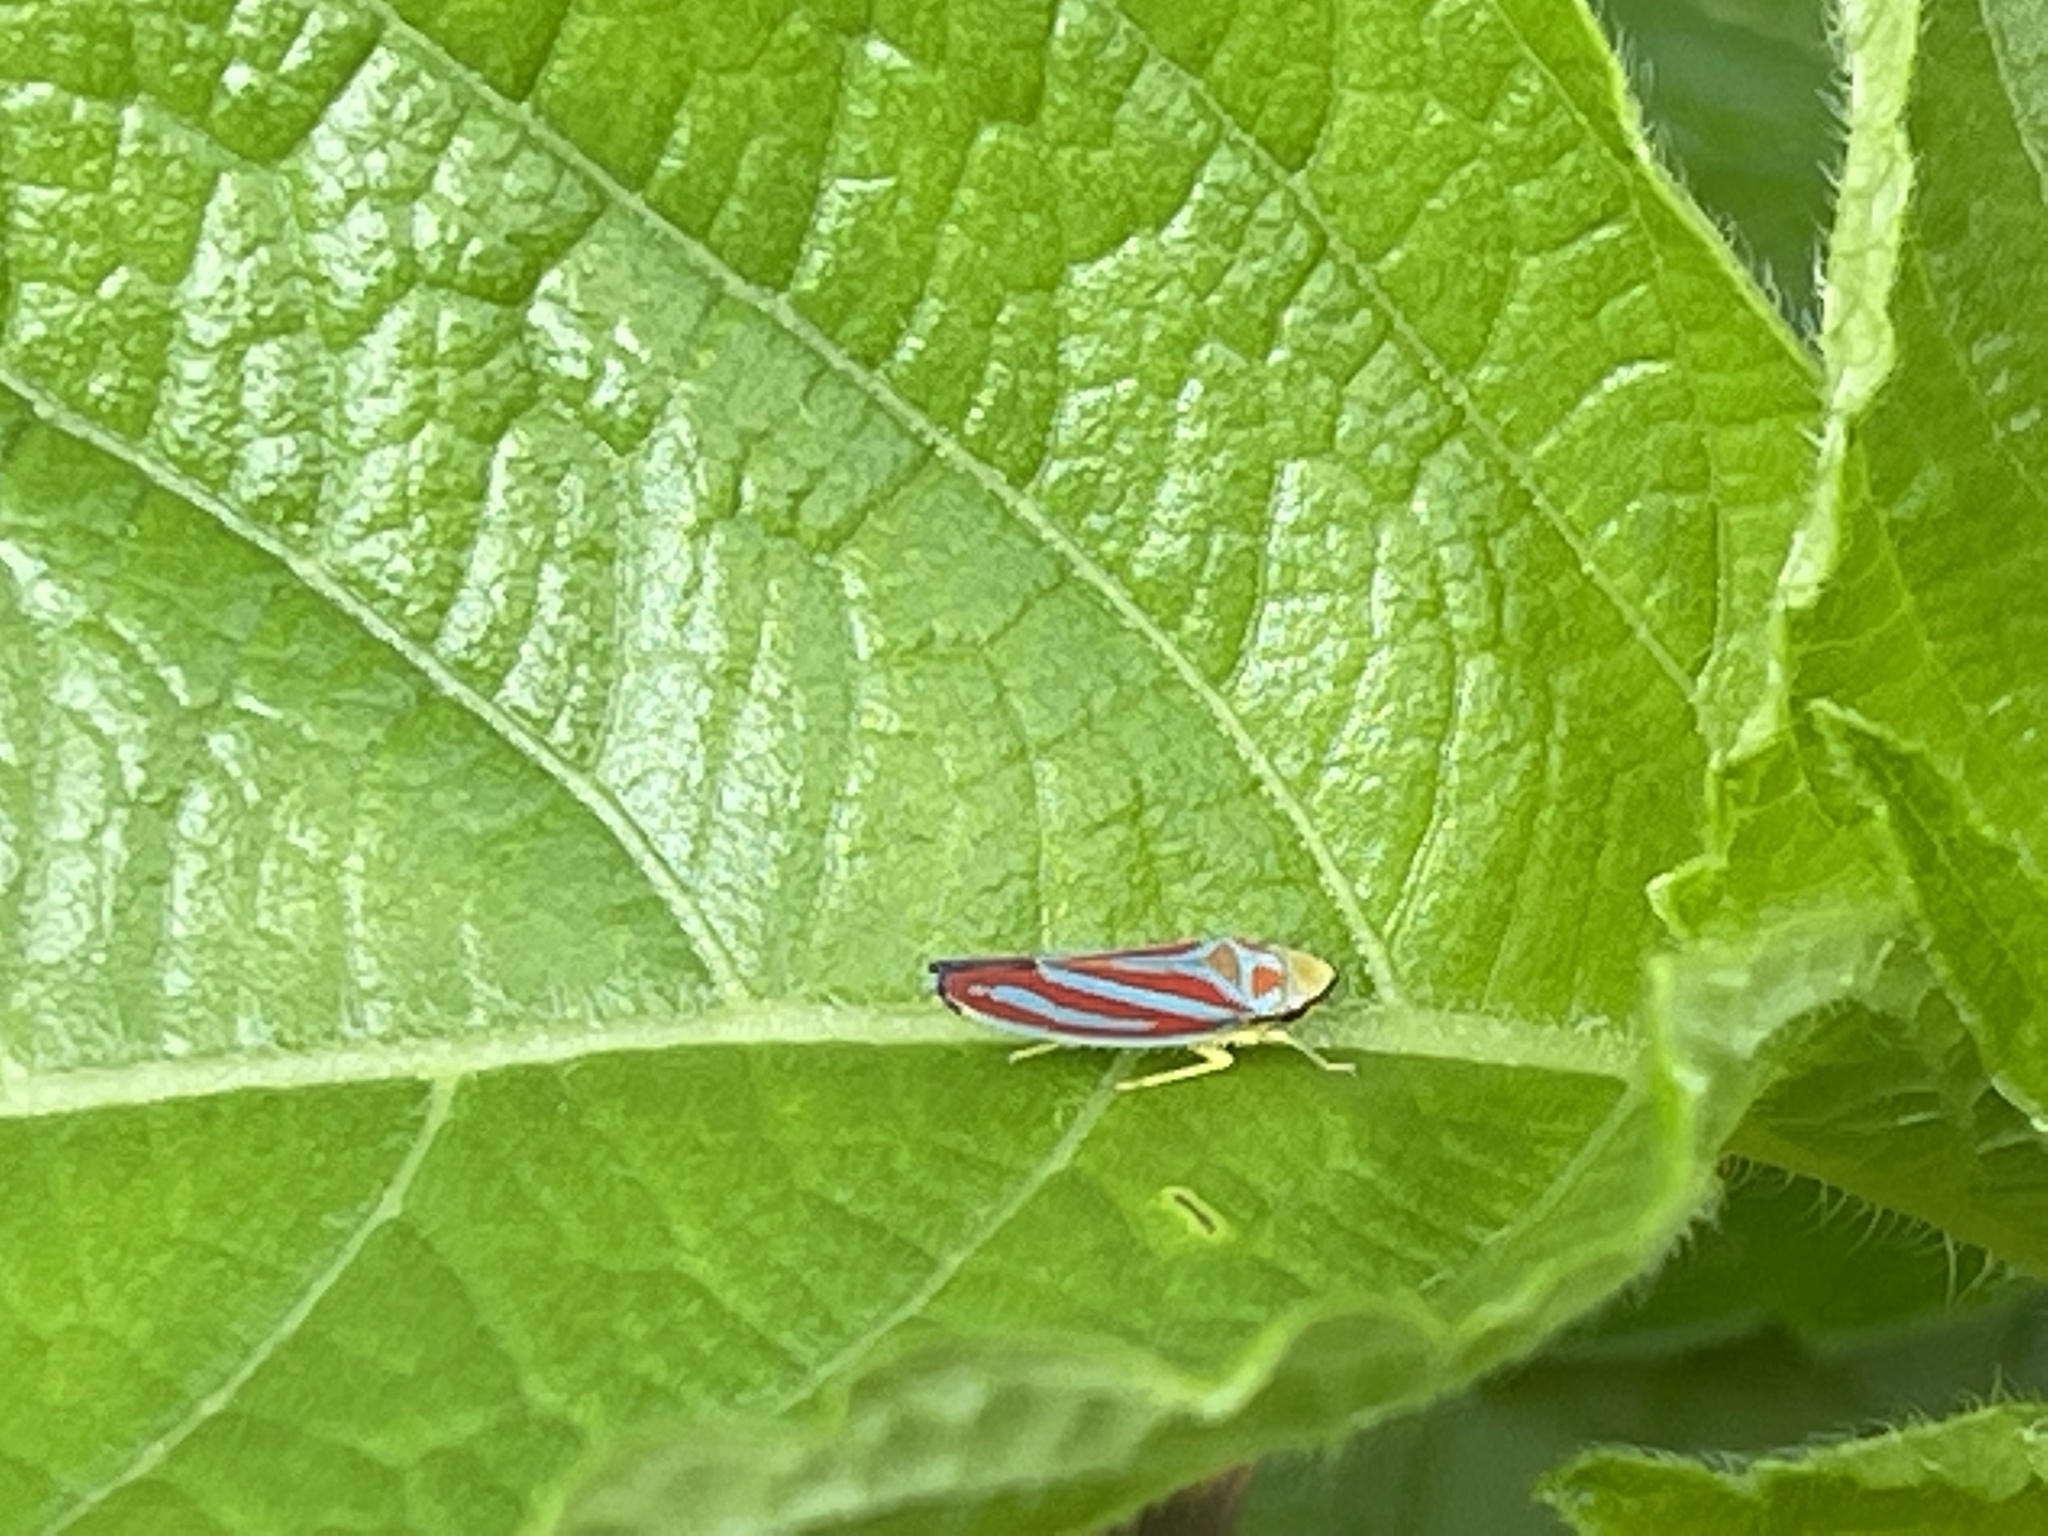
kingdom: Animalia
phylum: Arthropoda
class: Insecta
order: Hemiptera
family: Cicadellidae
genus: Graphocephala
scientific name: Graphocephala coccinea
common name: Candy-striped leafhopper
